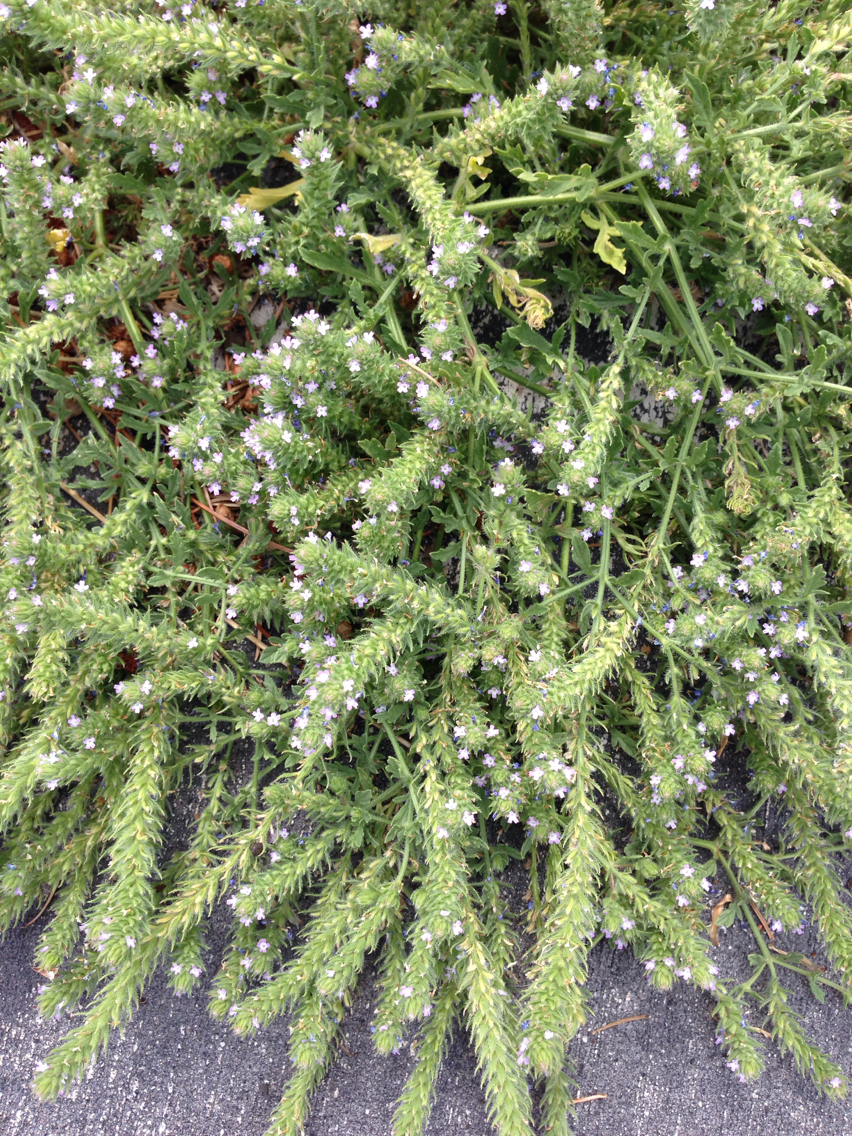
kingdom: Plantae
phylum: Tracheophyta
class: Magnoliopsida
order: Lamiales
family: Verbenaceae
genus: Verbena
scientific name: Verbena bracteata
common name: Bracted vervain
